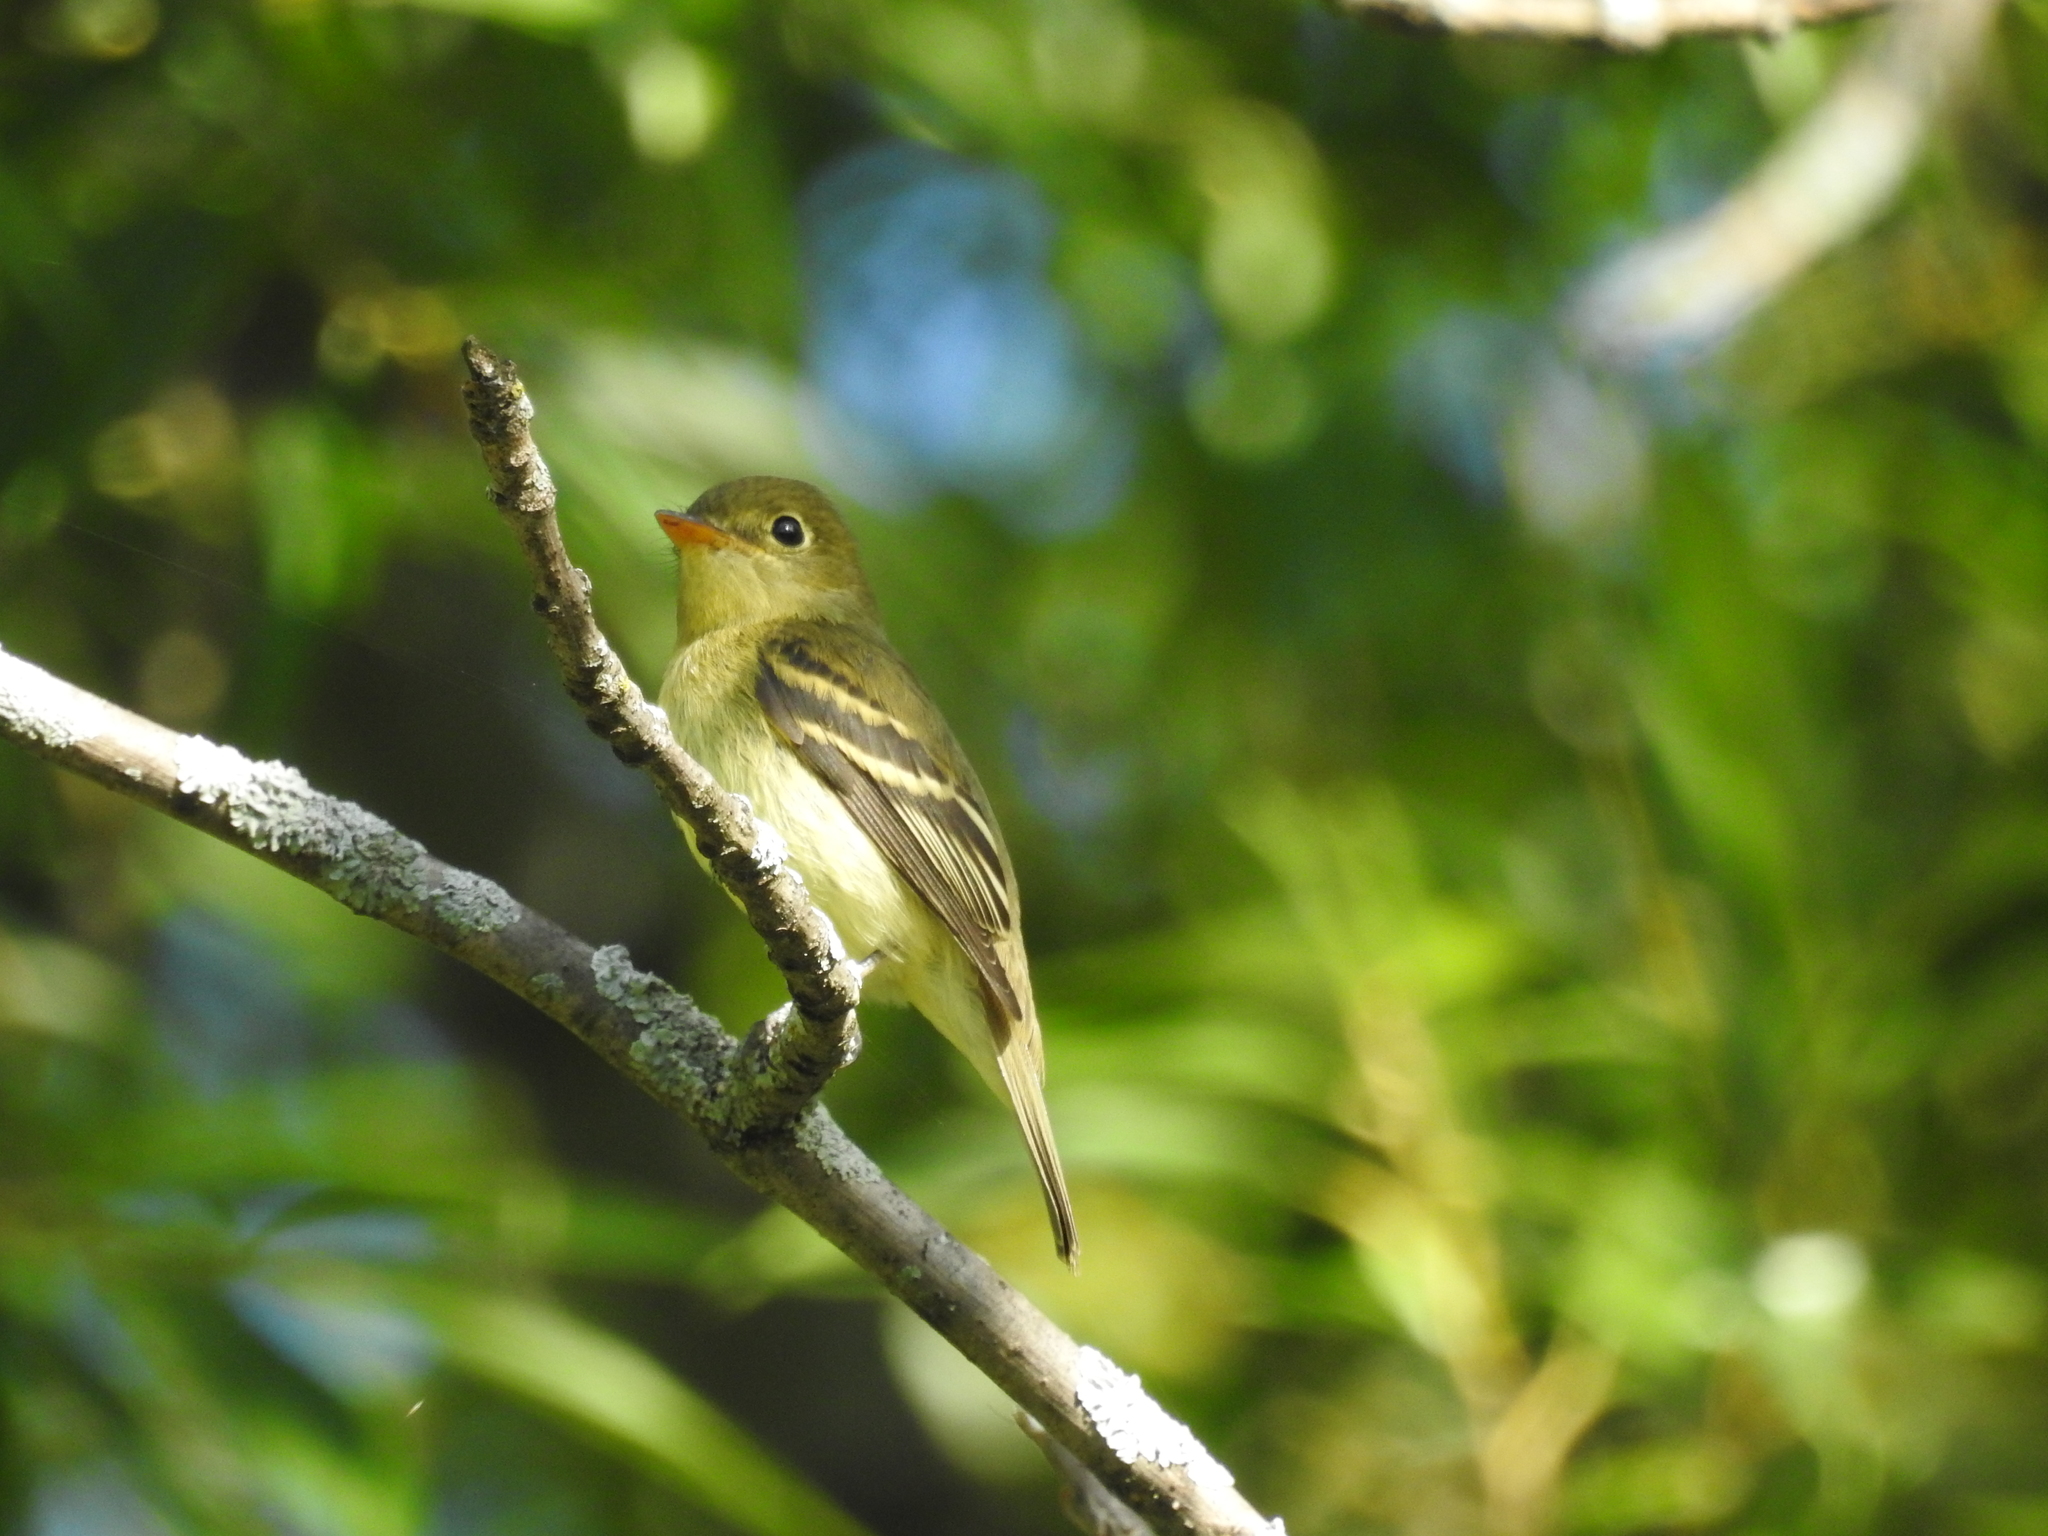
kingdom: Animalia
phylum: Chordata
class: Aves
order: Passeriformes
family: Tyrannidae
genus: Empidonax
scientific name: Empidonax flaviventris
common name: Yellow-bellied flycatcher
